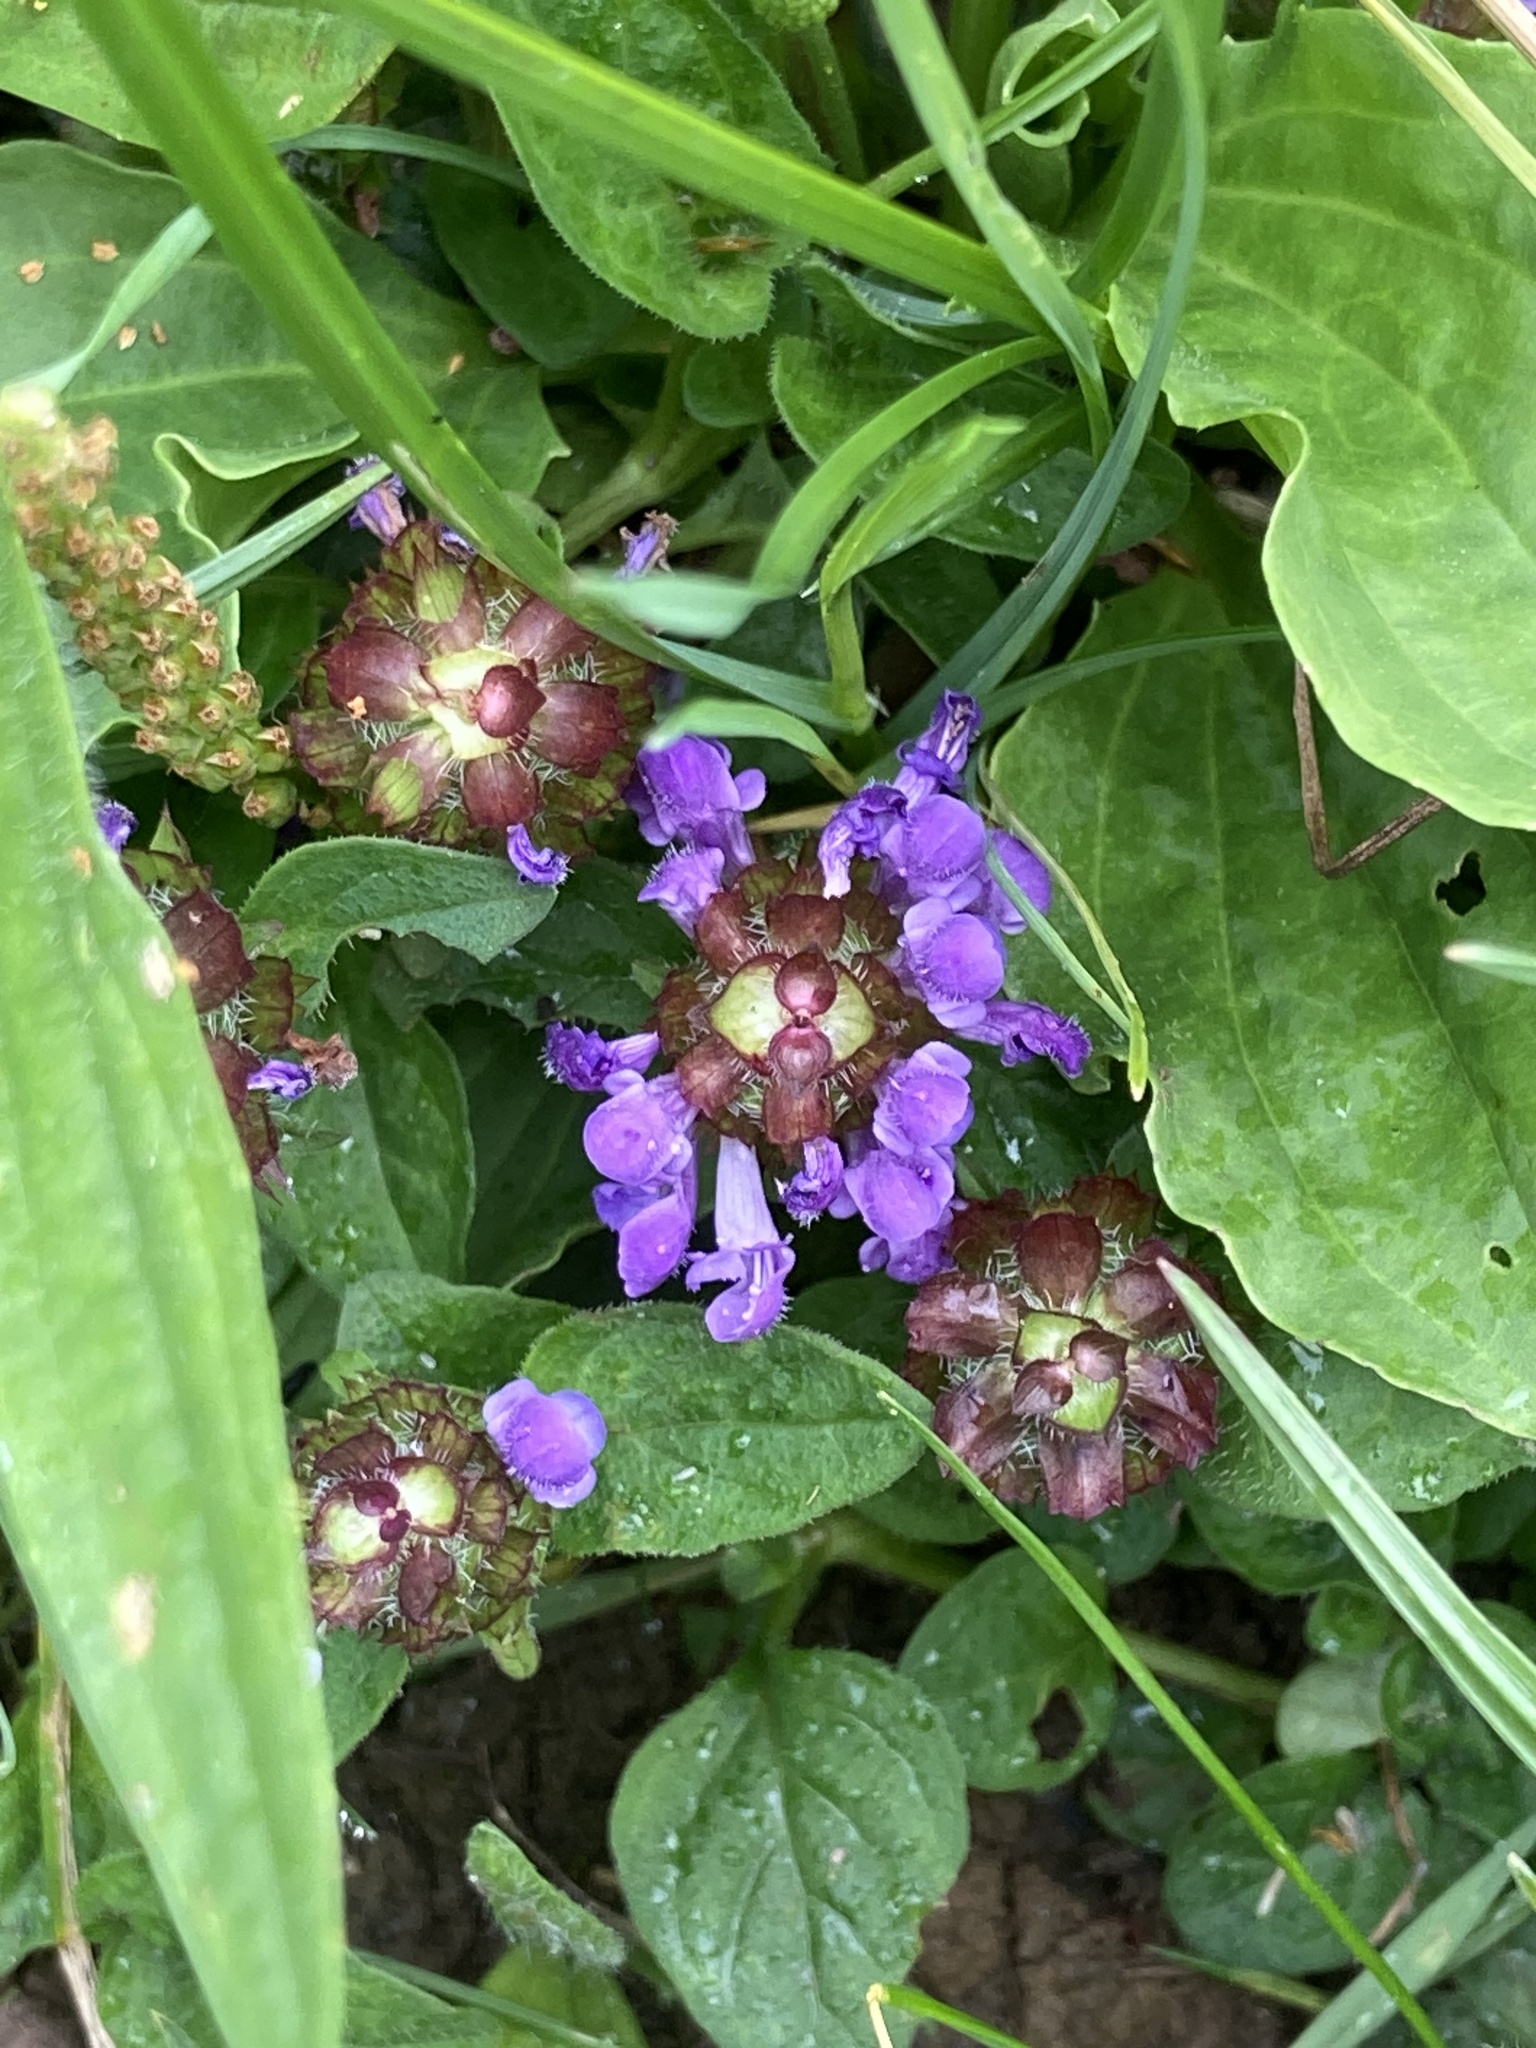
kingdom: Plantae
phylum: Tracheophyta
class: Magnoliopsida
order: Lamiales
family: Lamiaceae
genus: Prunella
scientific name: Prunella vulgaris
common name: Heal-all
